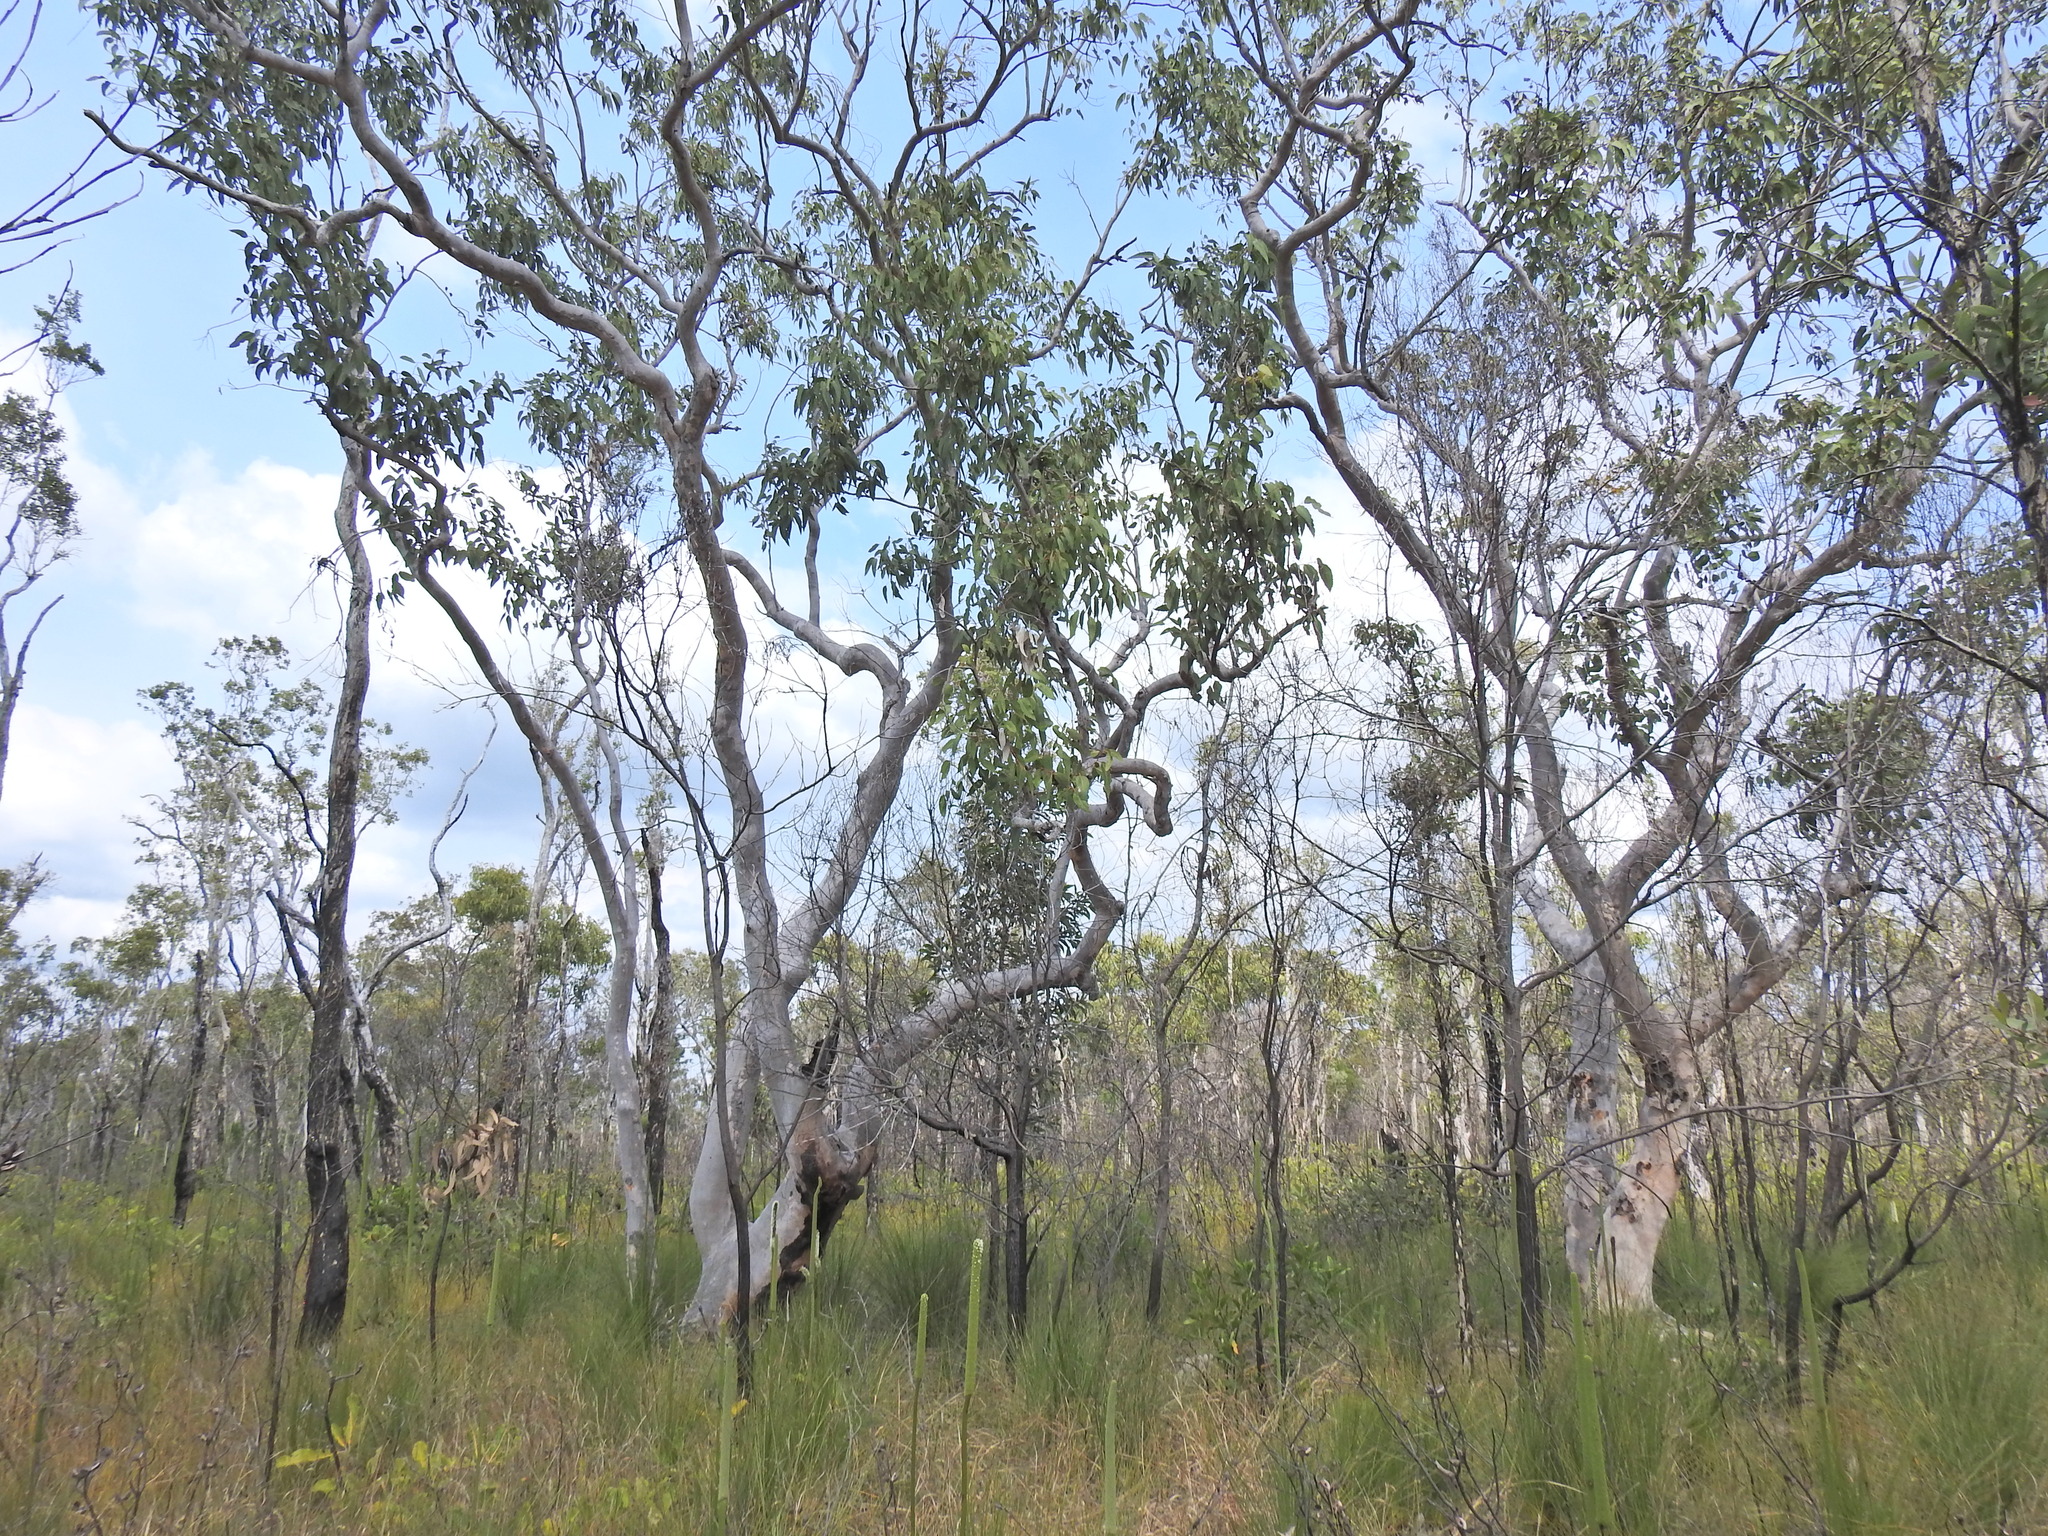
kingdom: Plantae
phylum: Tracheophyta
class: Magnoliopsida
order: Myrtales
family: Myrtaceae
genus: Eucalyptus
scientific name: Eucalyptus bancroftii
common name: Blue gum
